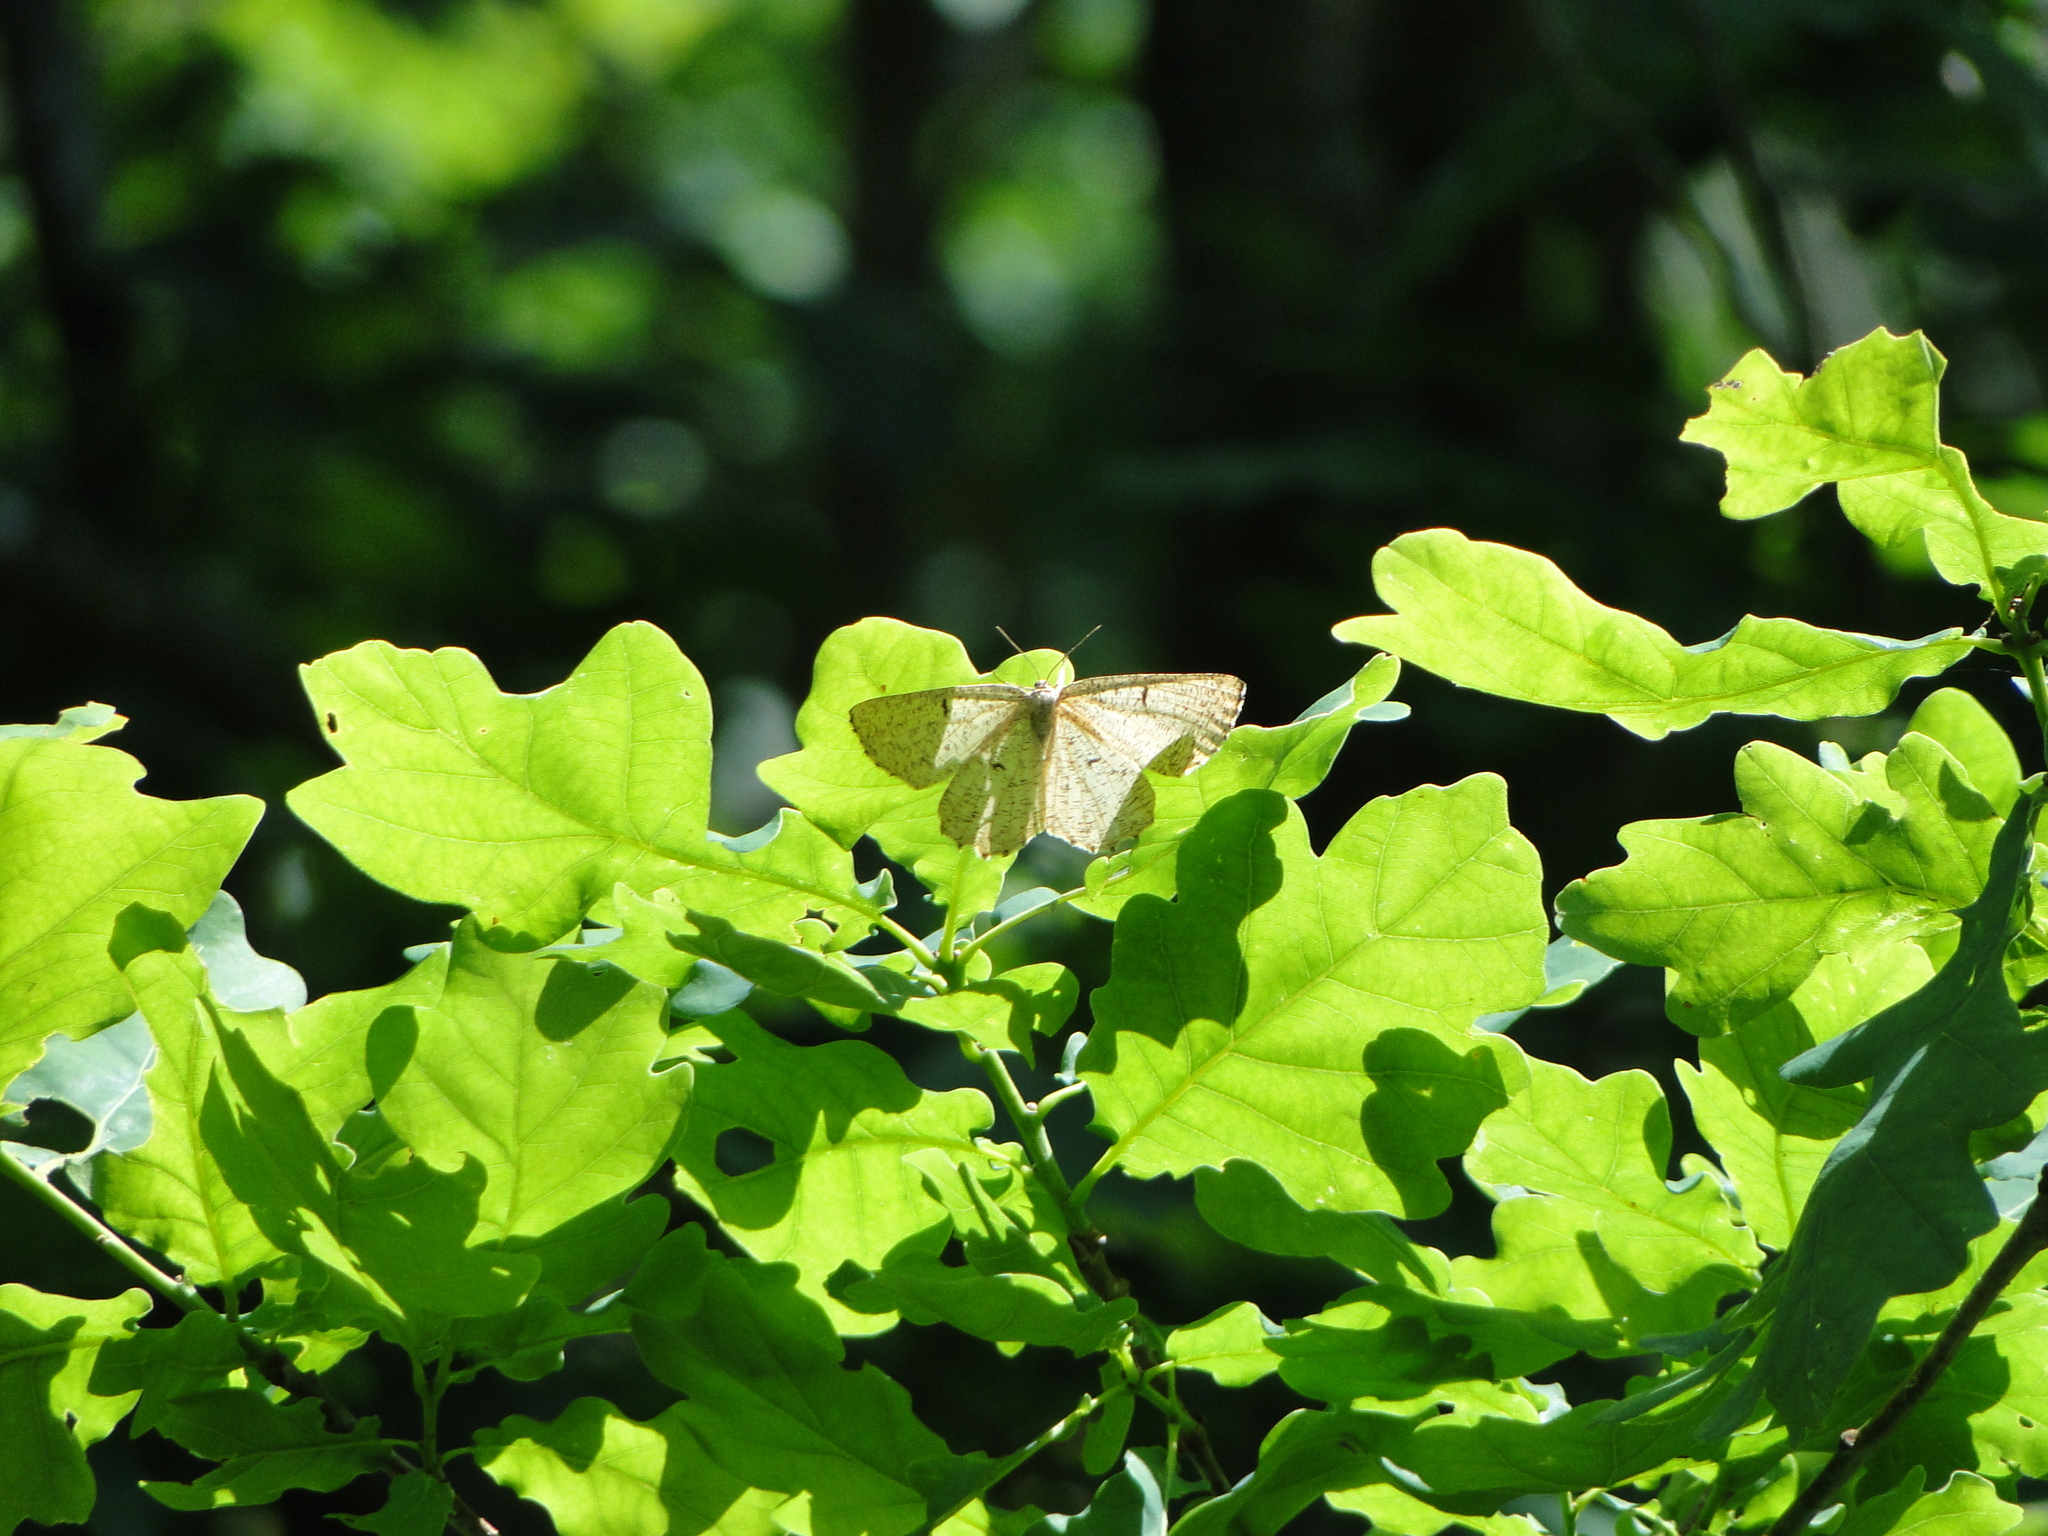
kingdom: Animalia
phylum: Arthropoda
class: Insecta
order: Lepidoptera
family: Geometridae
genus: Angerona
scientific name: Angerona prunaria
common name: Orange moth
